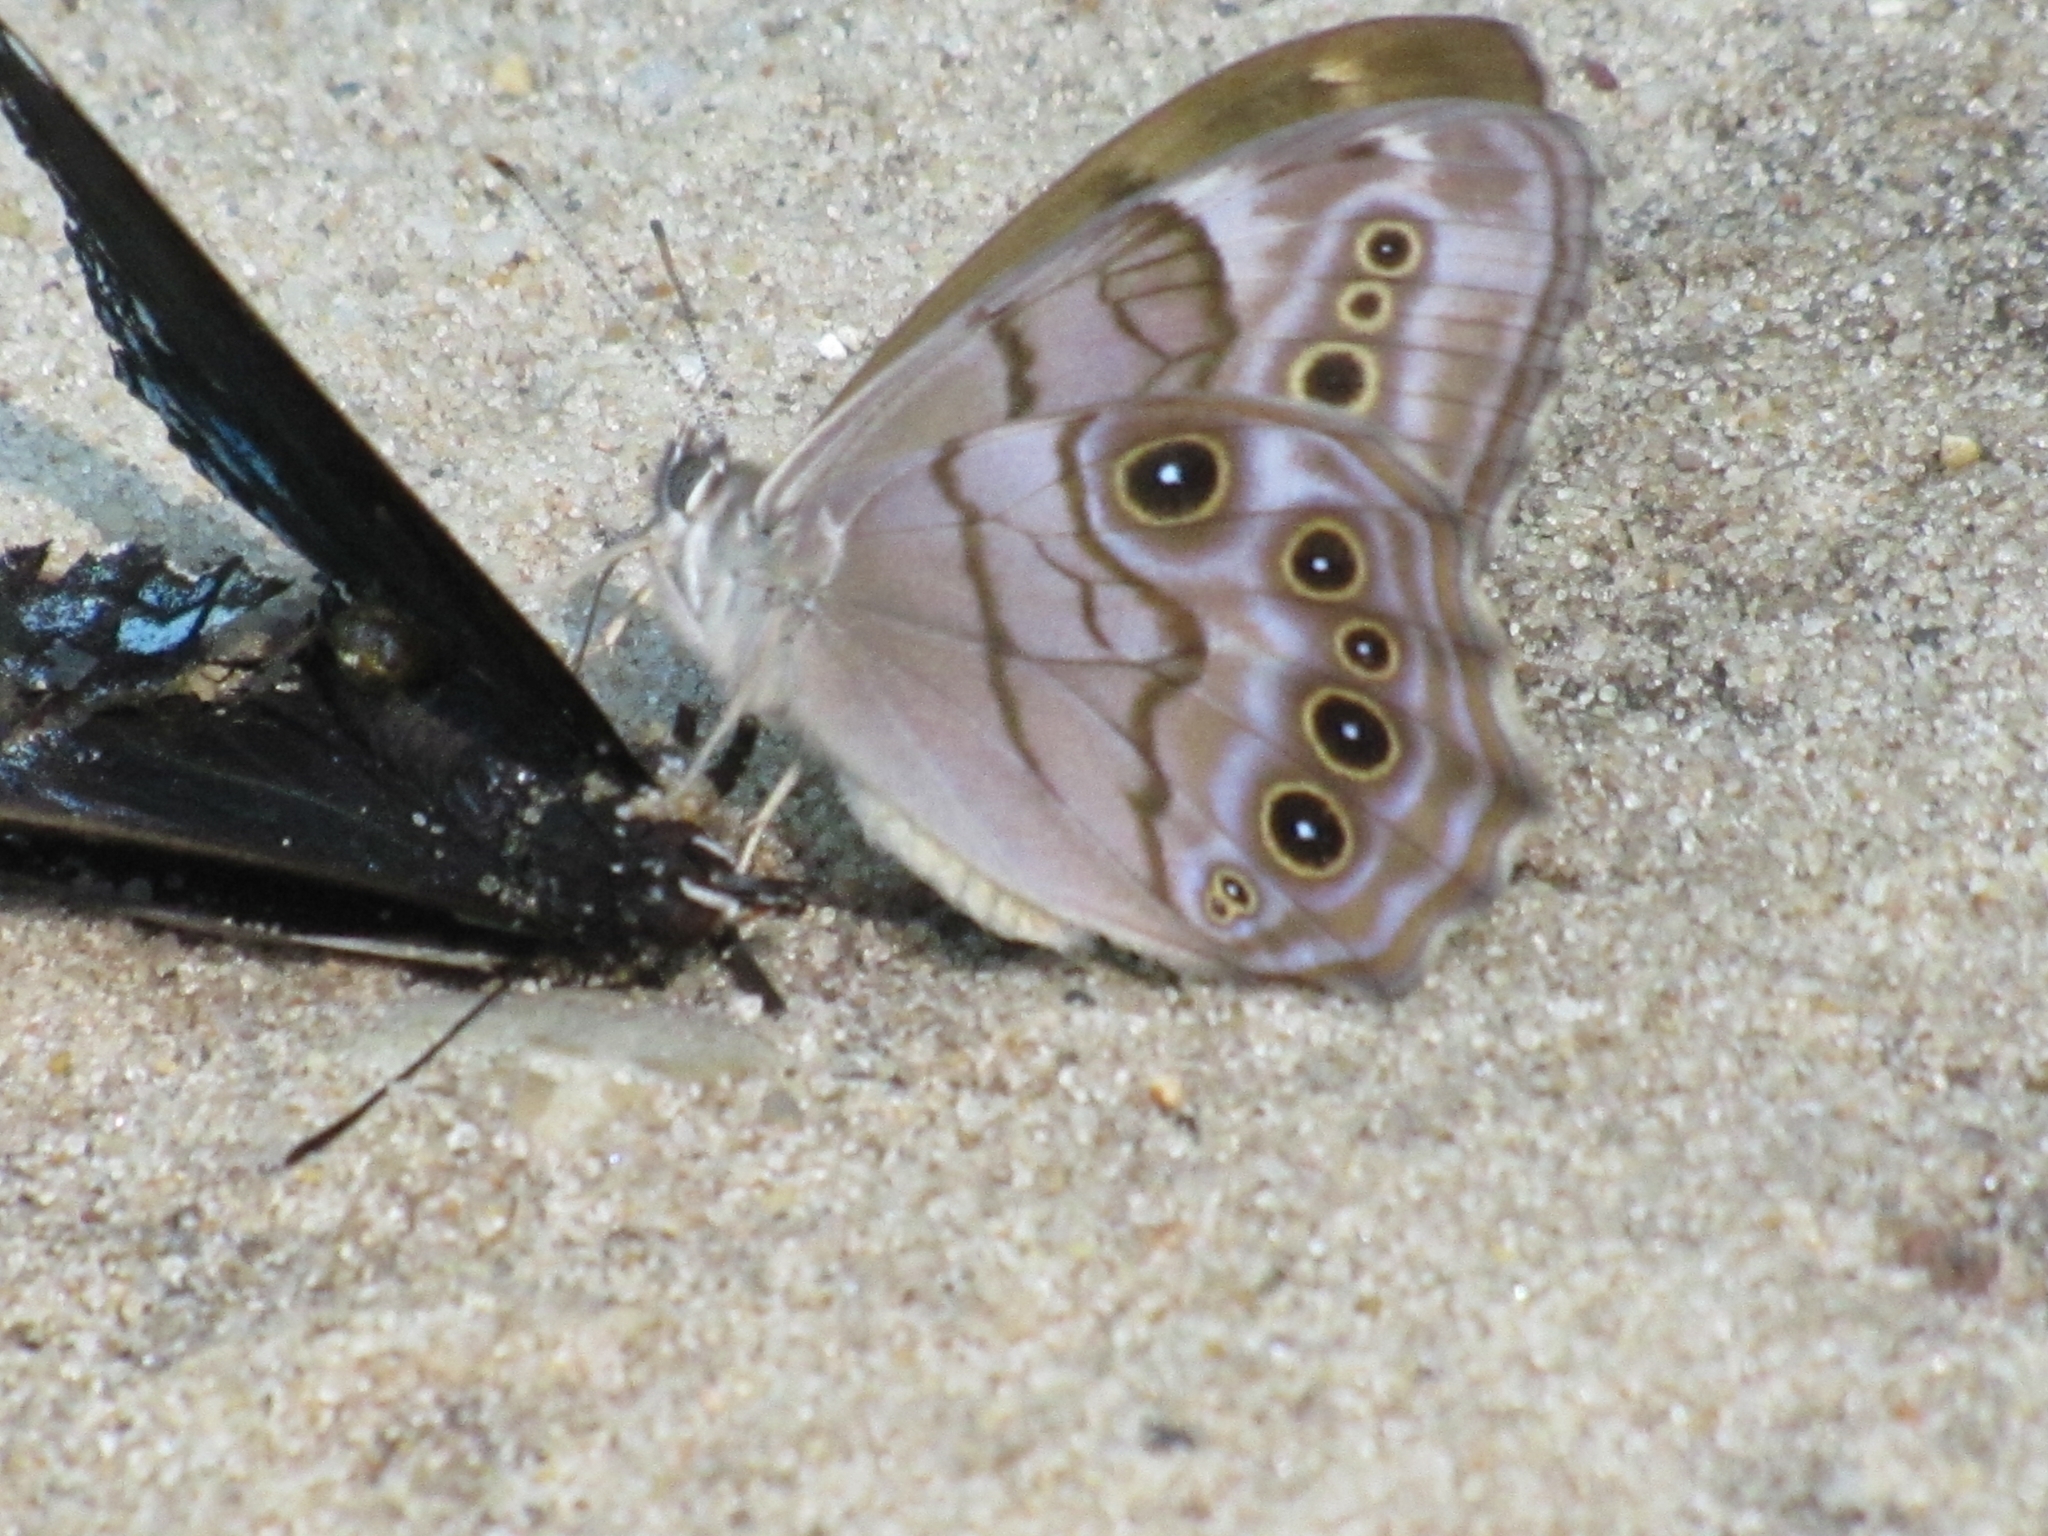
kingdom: Animalia
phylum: Arthropoda
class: Insecta
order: Lepidoptera
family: Nymphalidae
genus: Lethe
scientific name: Lethe anthedon
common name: Northern pearly-eye
